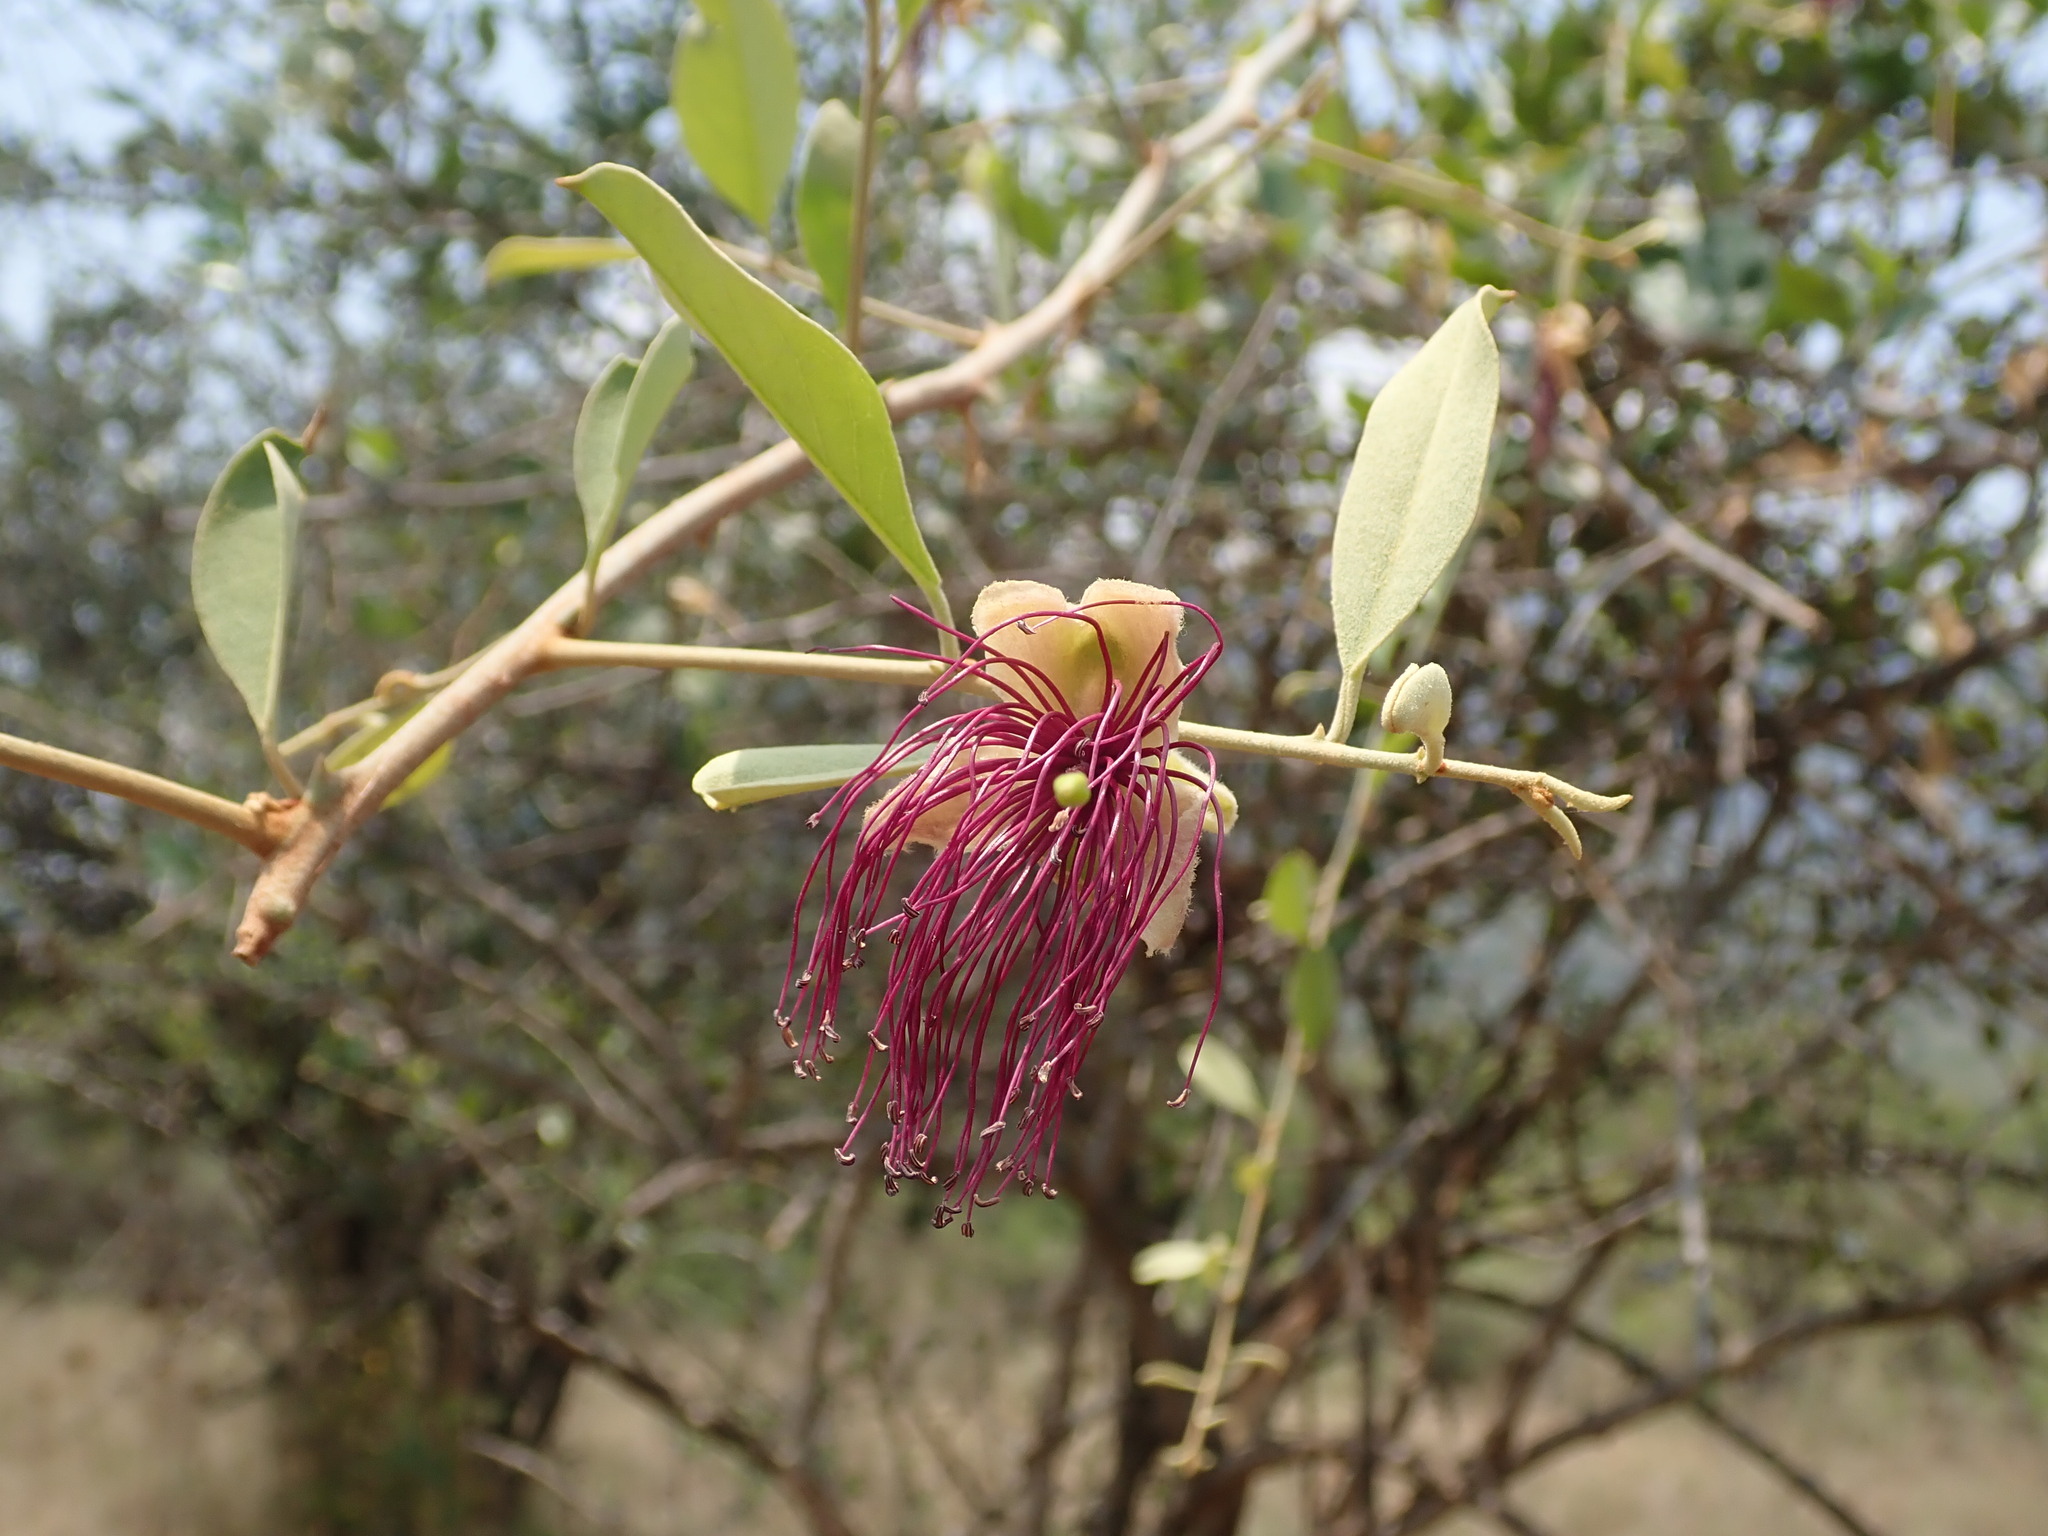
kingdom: Plantae
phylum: Tracheophyta
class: Magnoliopsida
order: Brassicales
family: Capparaceae
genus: Capparis
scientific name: Capparis zeylanica
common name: Ceylon caper
